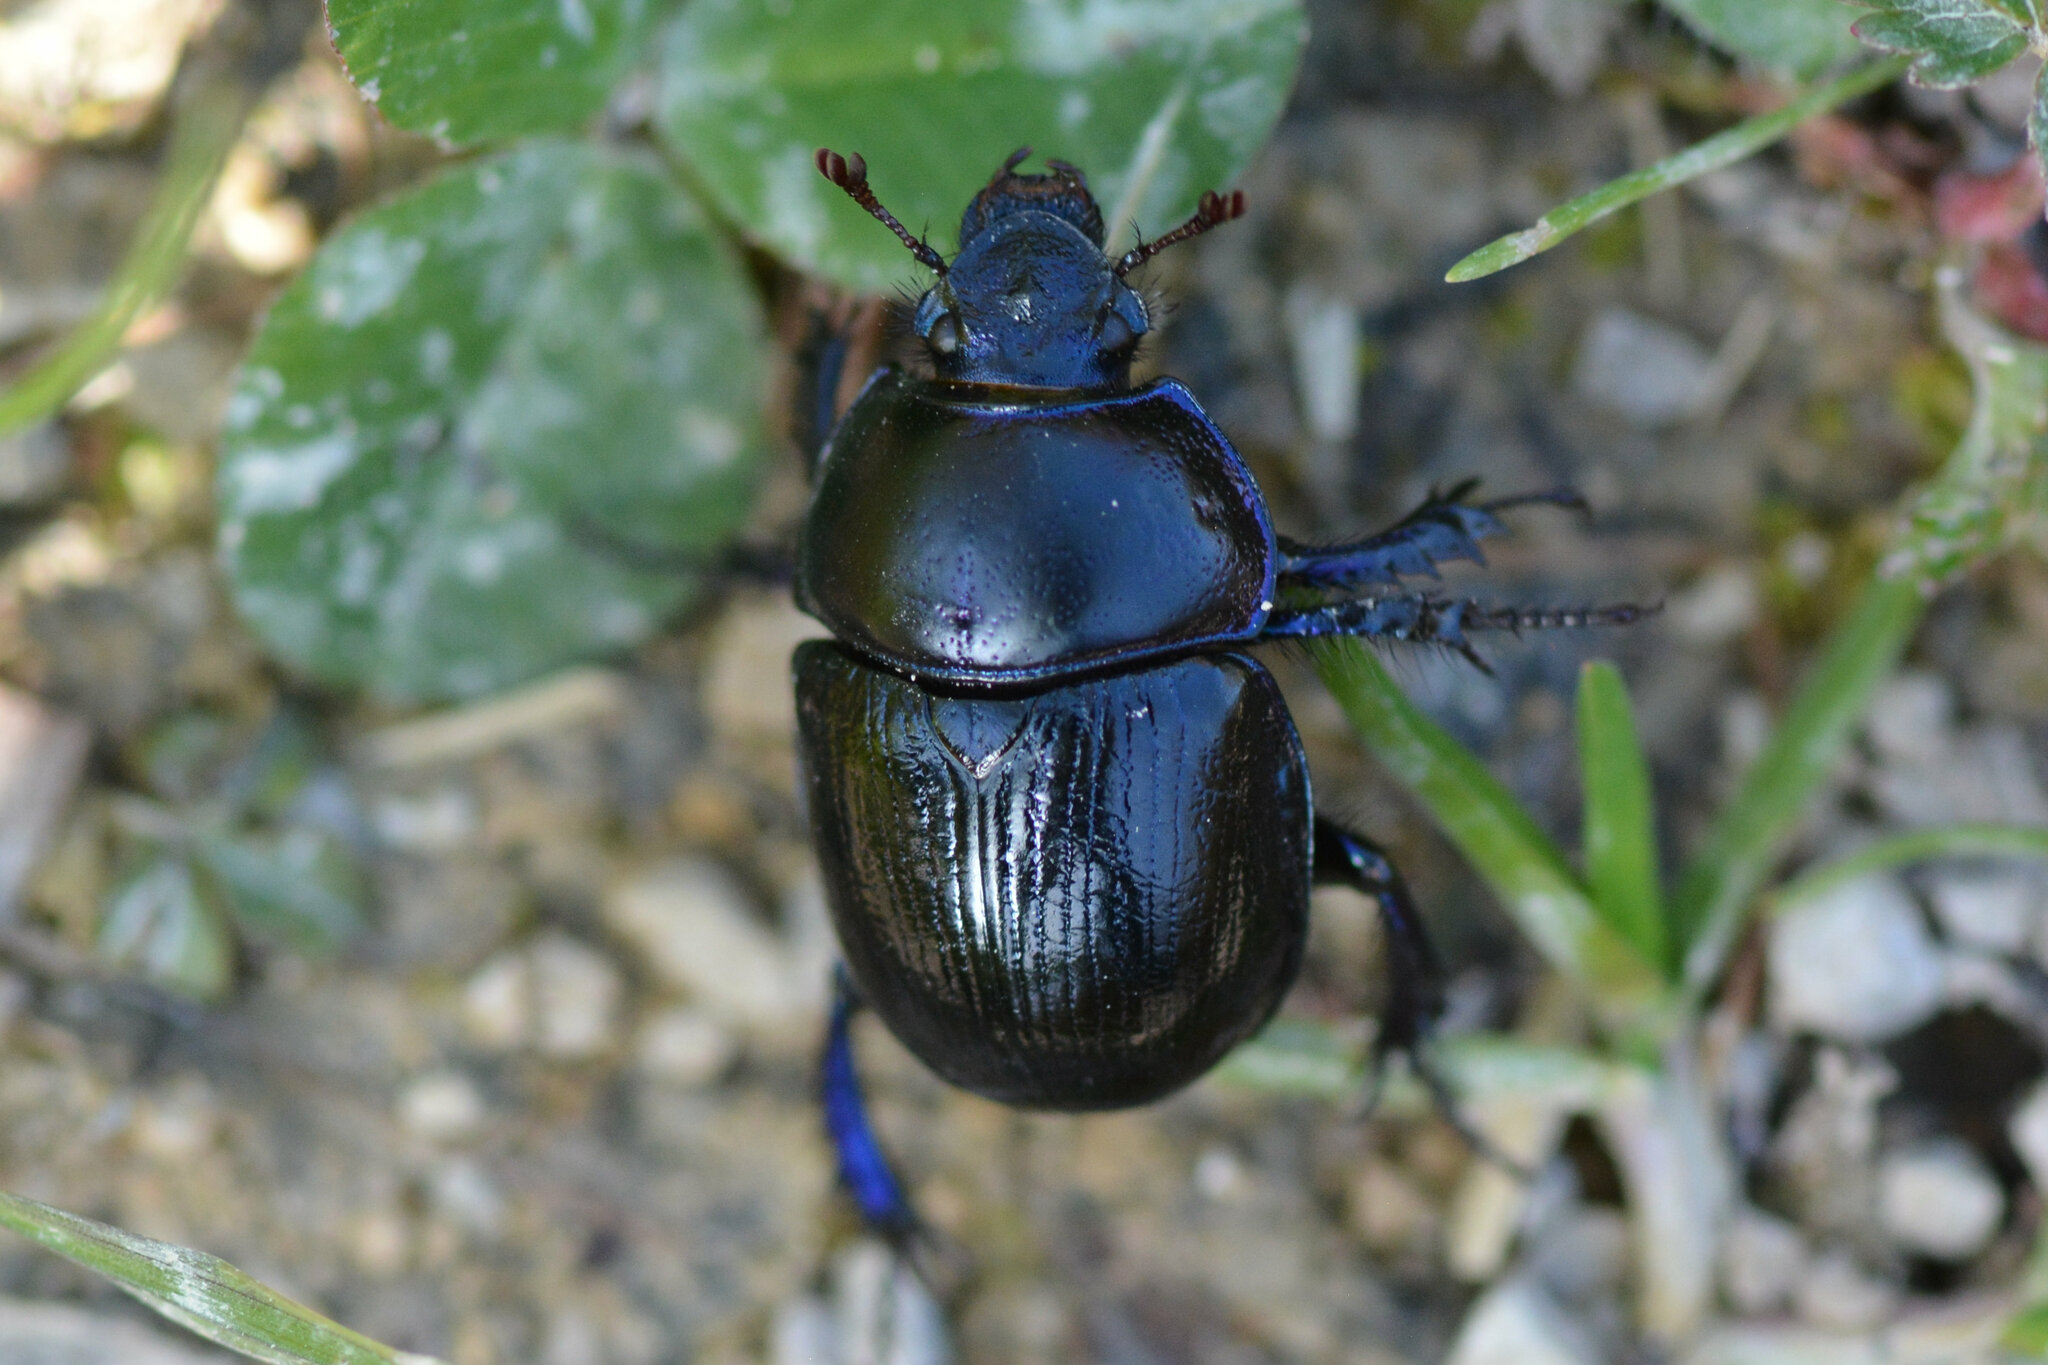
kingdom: Animalia
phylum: Arthropoda
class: Insecta
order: Coleoptera
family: Geotrupidae
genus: Anoplotrupes
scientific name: Anoplotrupes stercorosus
